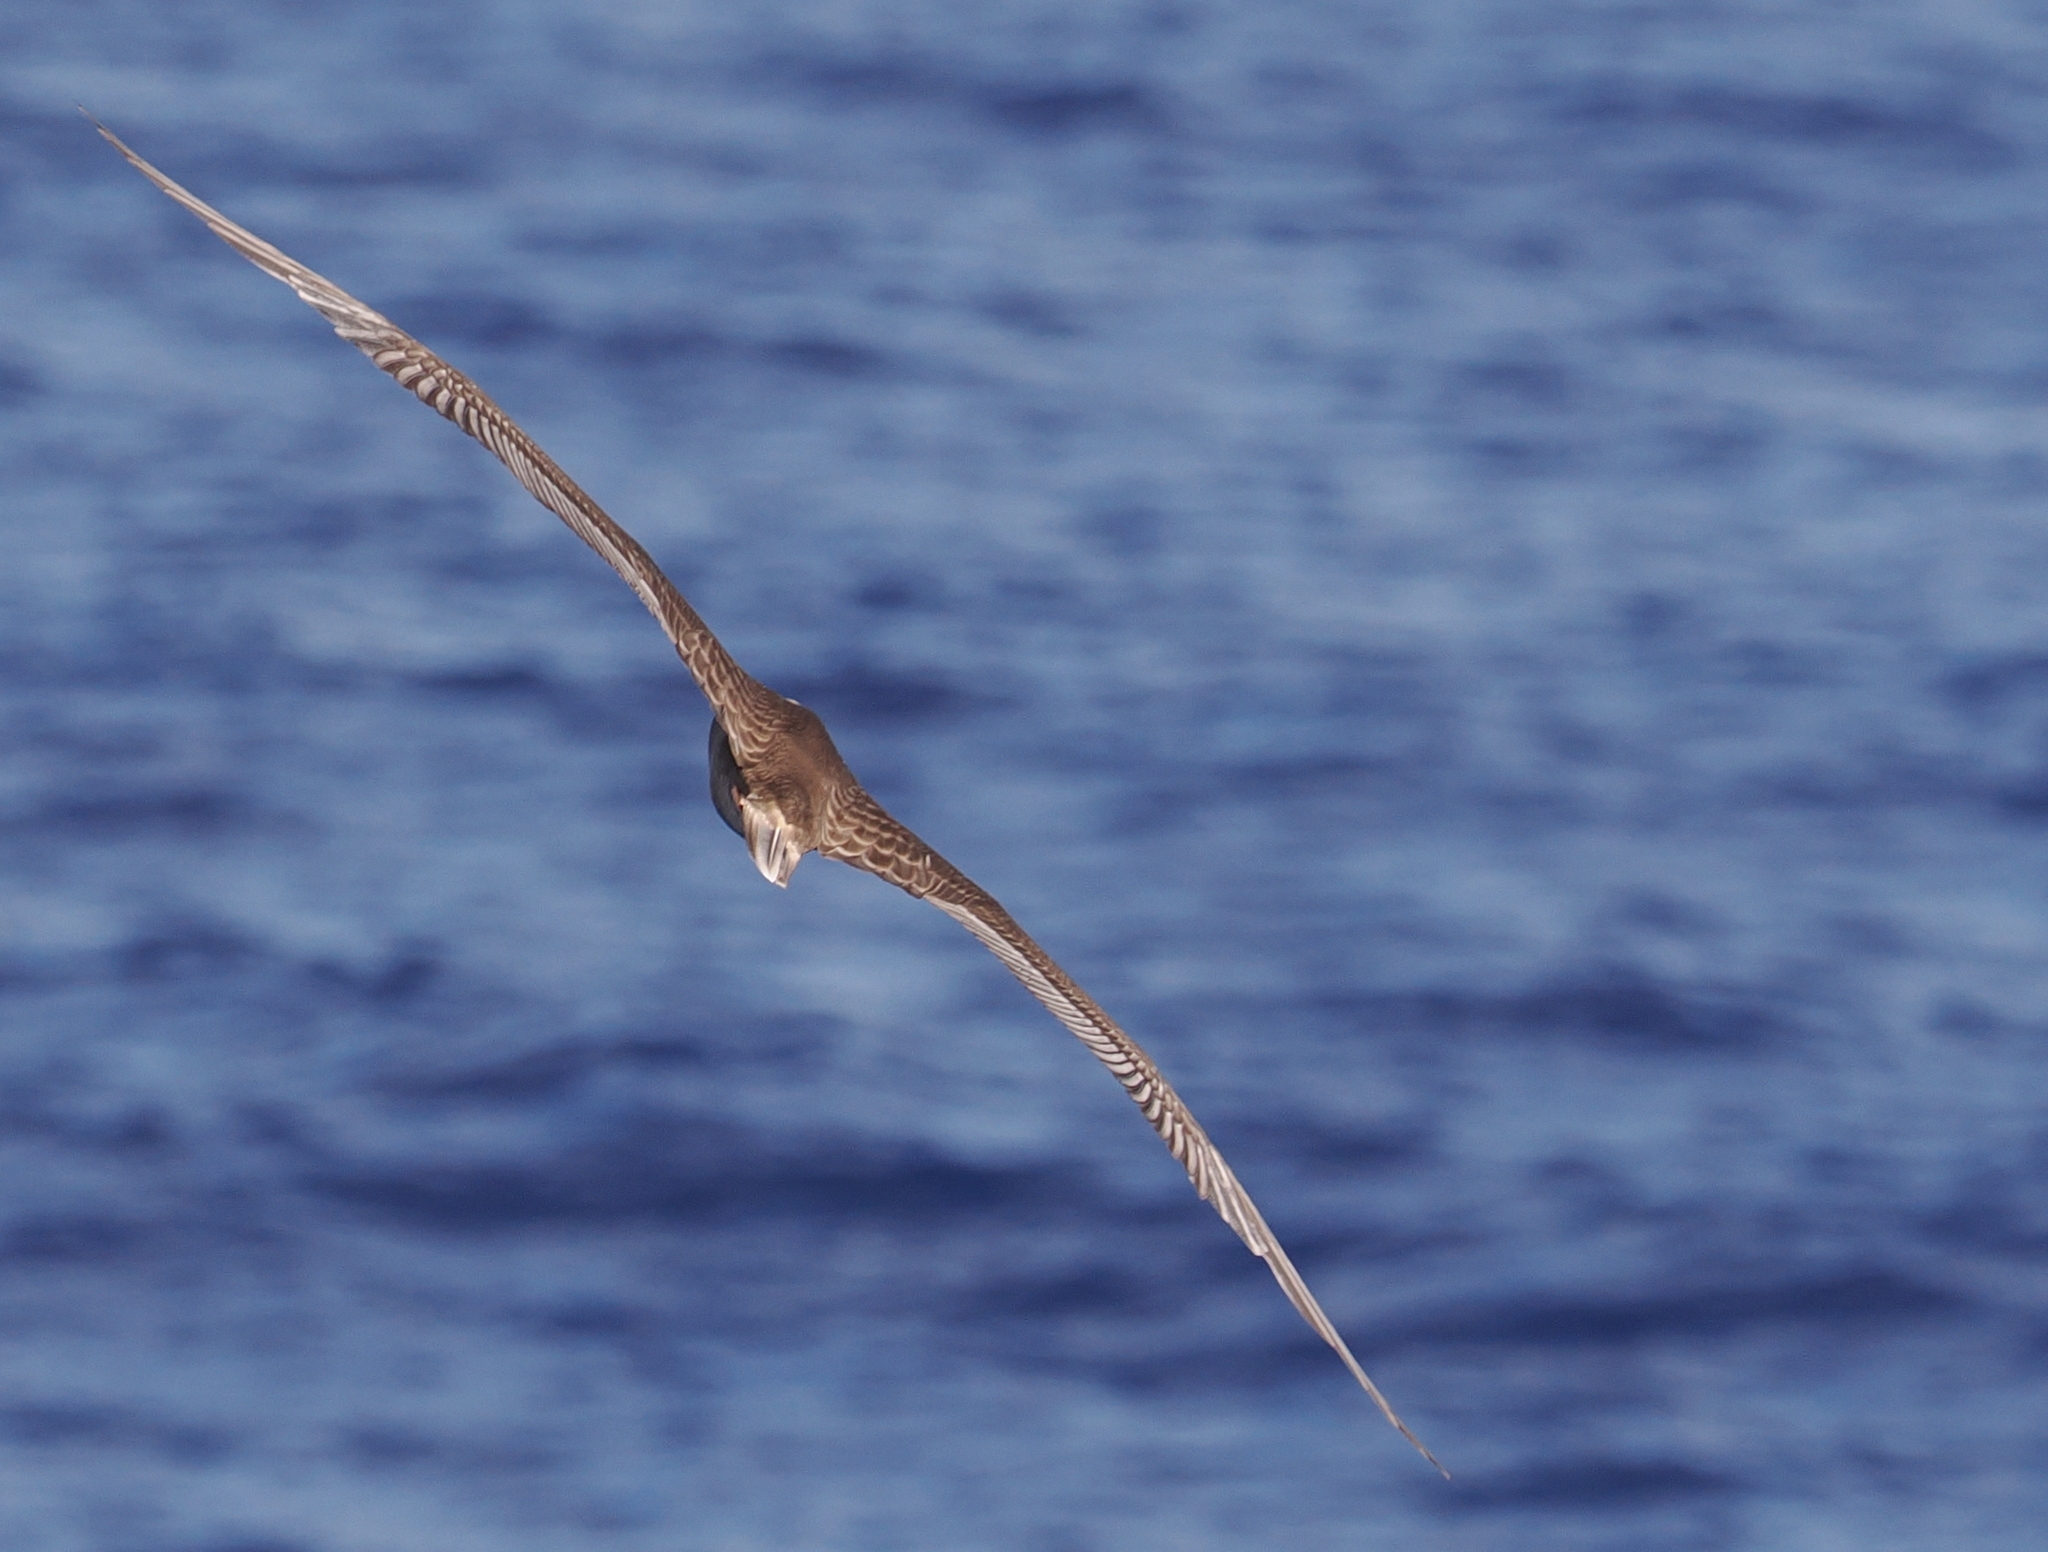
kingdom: Animalia
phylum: Chordata
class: Aves
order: Suliformes
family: Sulidae
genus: Sula
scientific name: Sula sula
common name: Red-footed booby
